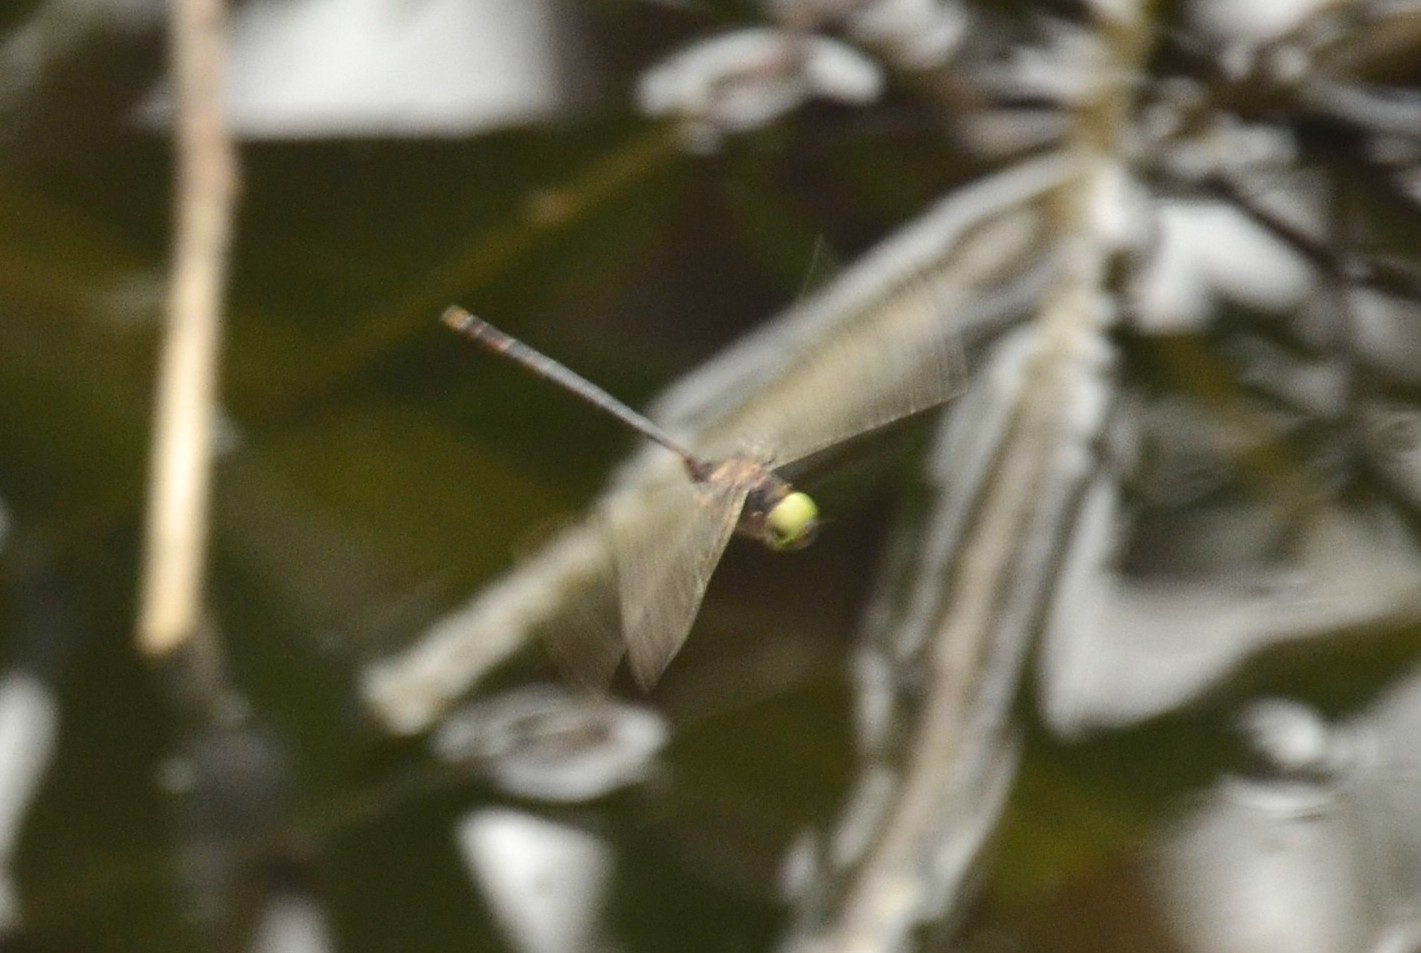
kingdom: Animalia
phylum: Arthropoda
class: Insecta
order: Odonata
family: Libellulidae
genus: Zyxomma
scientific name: Zyxomma petiolatum
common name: Dingy dusk-darter
